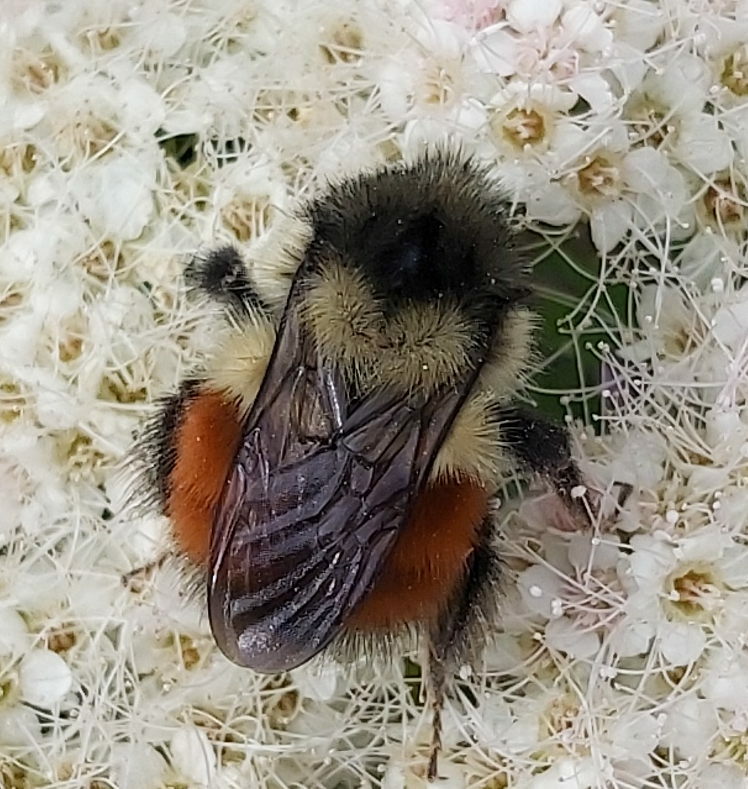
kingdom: Animalia
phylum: Arthropoda
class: Insecta
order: Hymenoptera
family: Apidae
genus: Bombus
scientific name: Bombus melanopygus
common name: Black tail bumble bee
